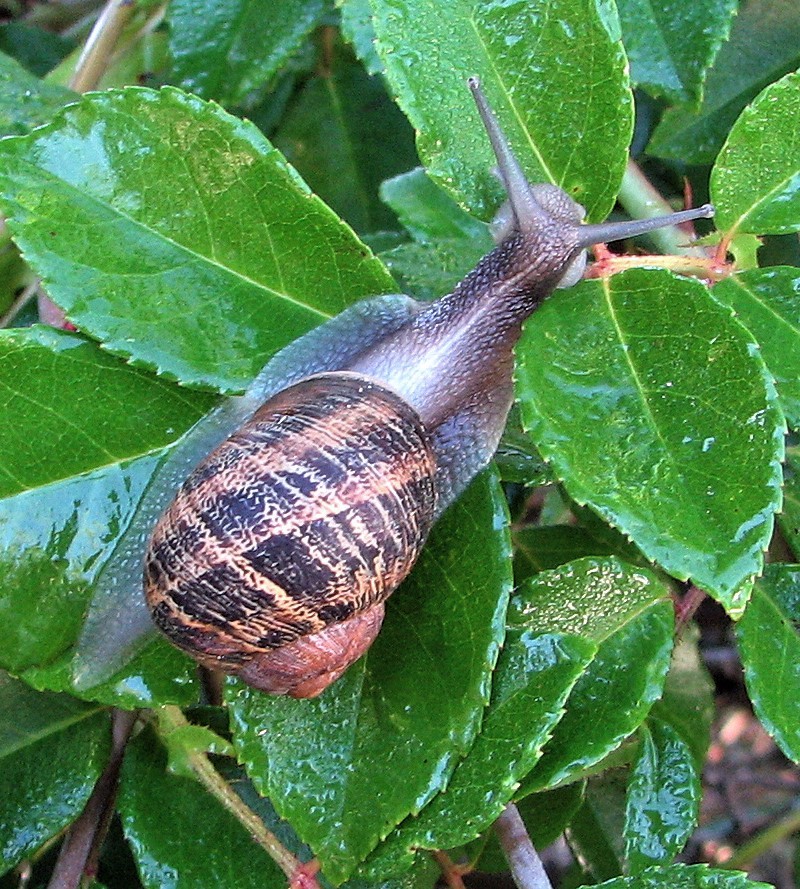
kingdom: Animalia
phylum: Mollusca
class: Gastropoda
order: Stylommatophora
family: Helicidae
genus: Cornu
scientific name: Cornu aspersum
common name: Brown garden snail
